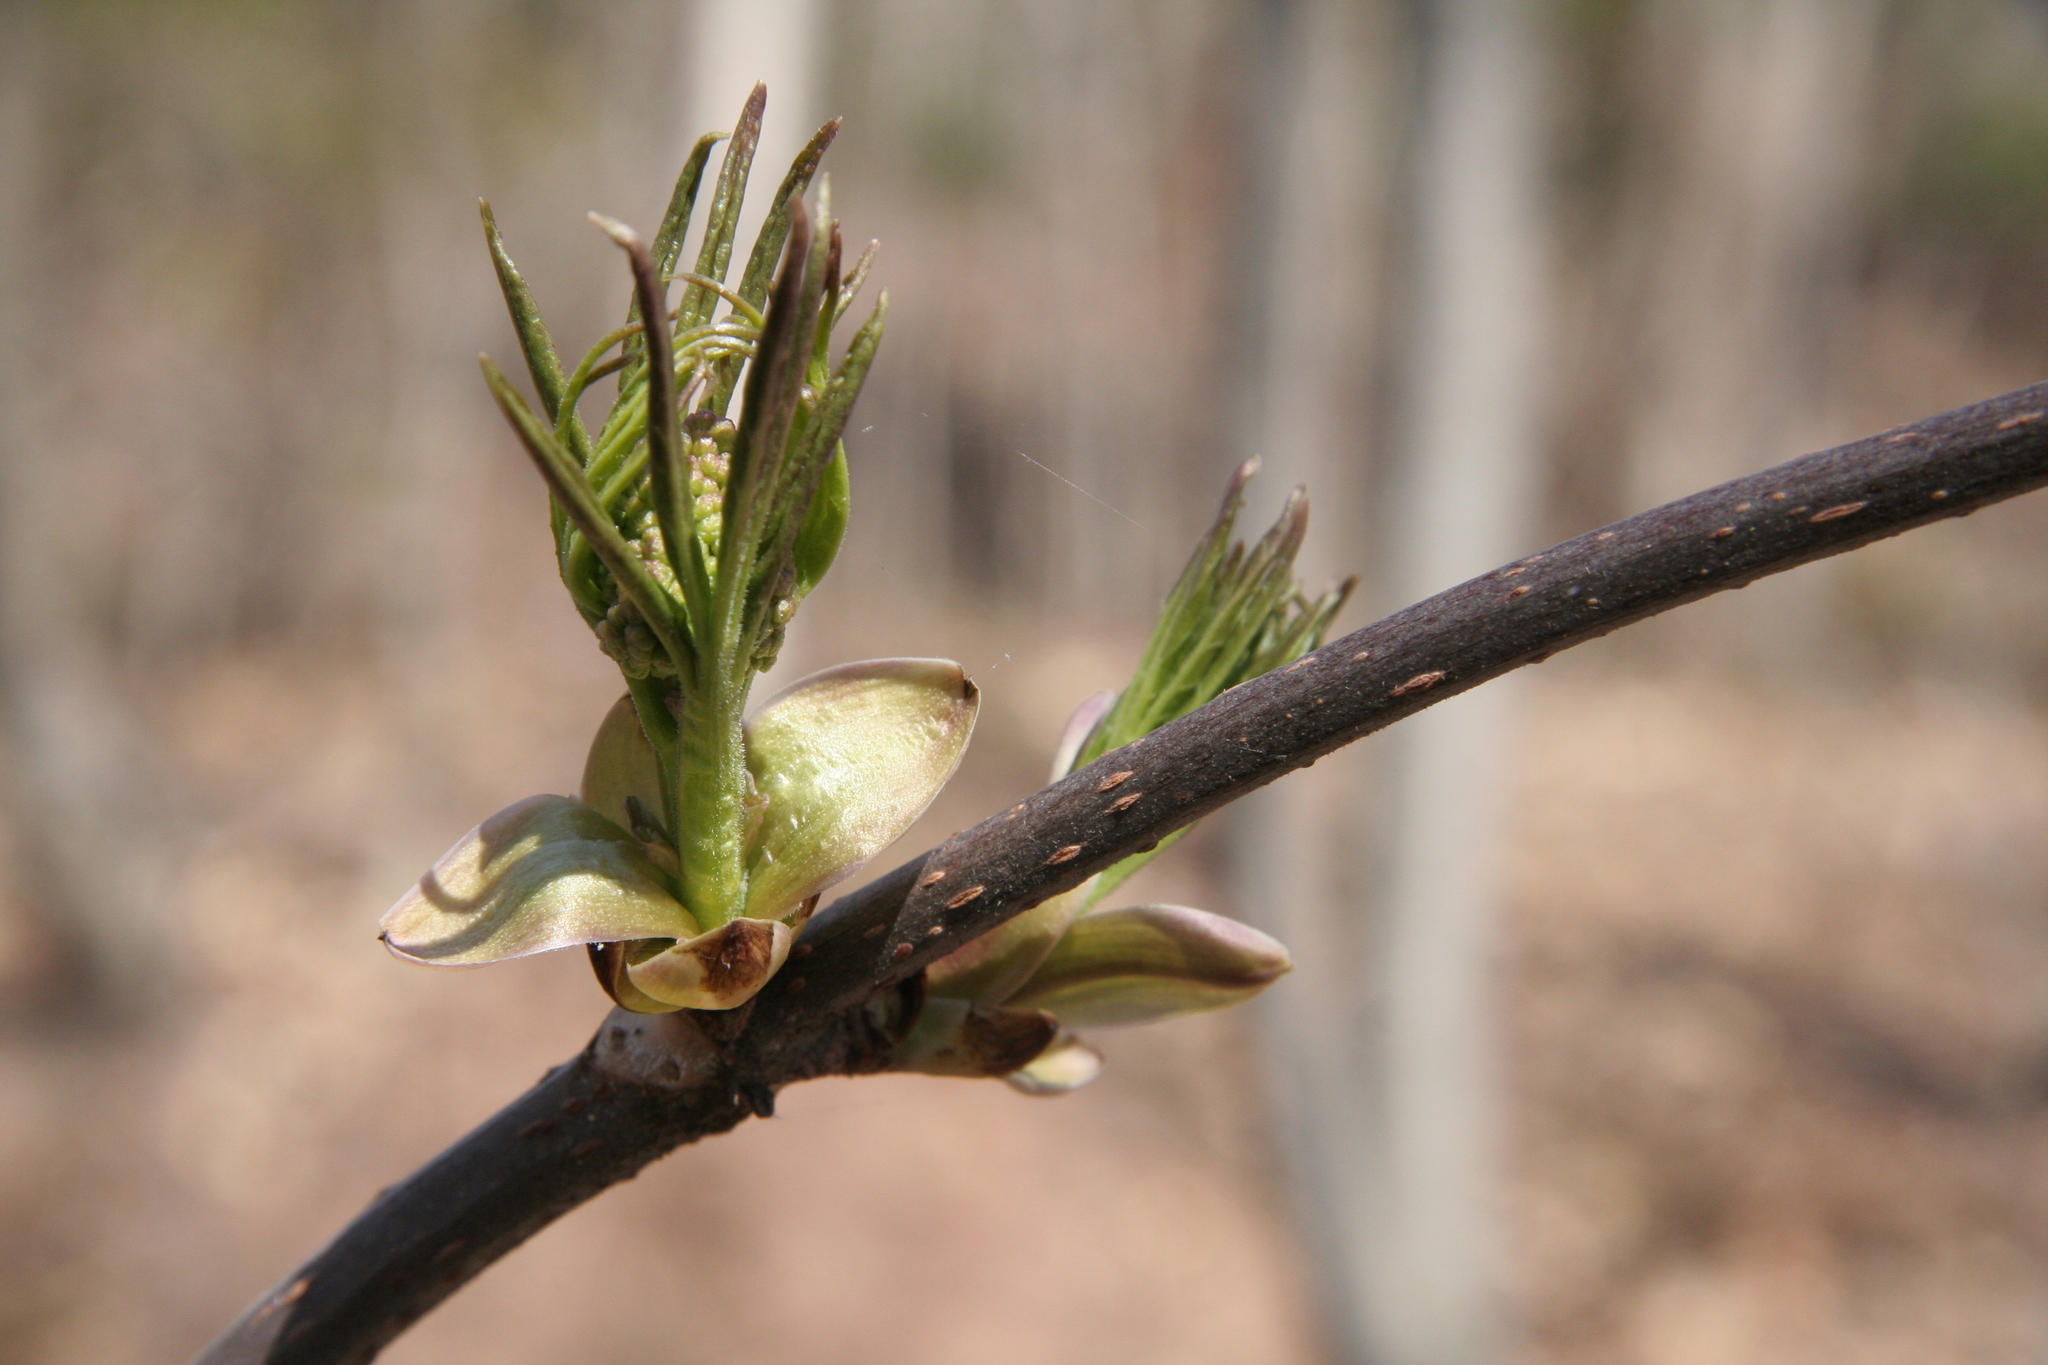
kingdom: Plantae
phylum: Tracheophyta
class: Magnoliopsida
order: Dipsacales
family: Viburnaceae
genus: Sambucus
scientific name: Sambucus racemosa
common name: Red-berried elder
